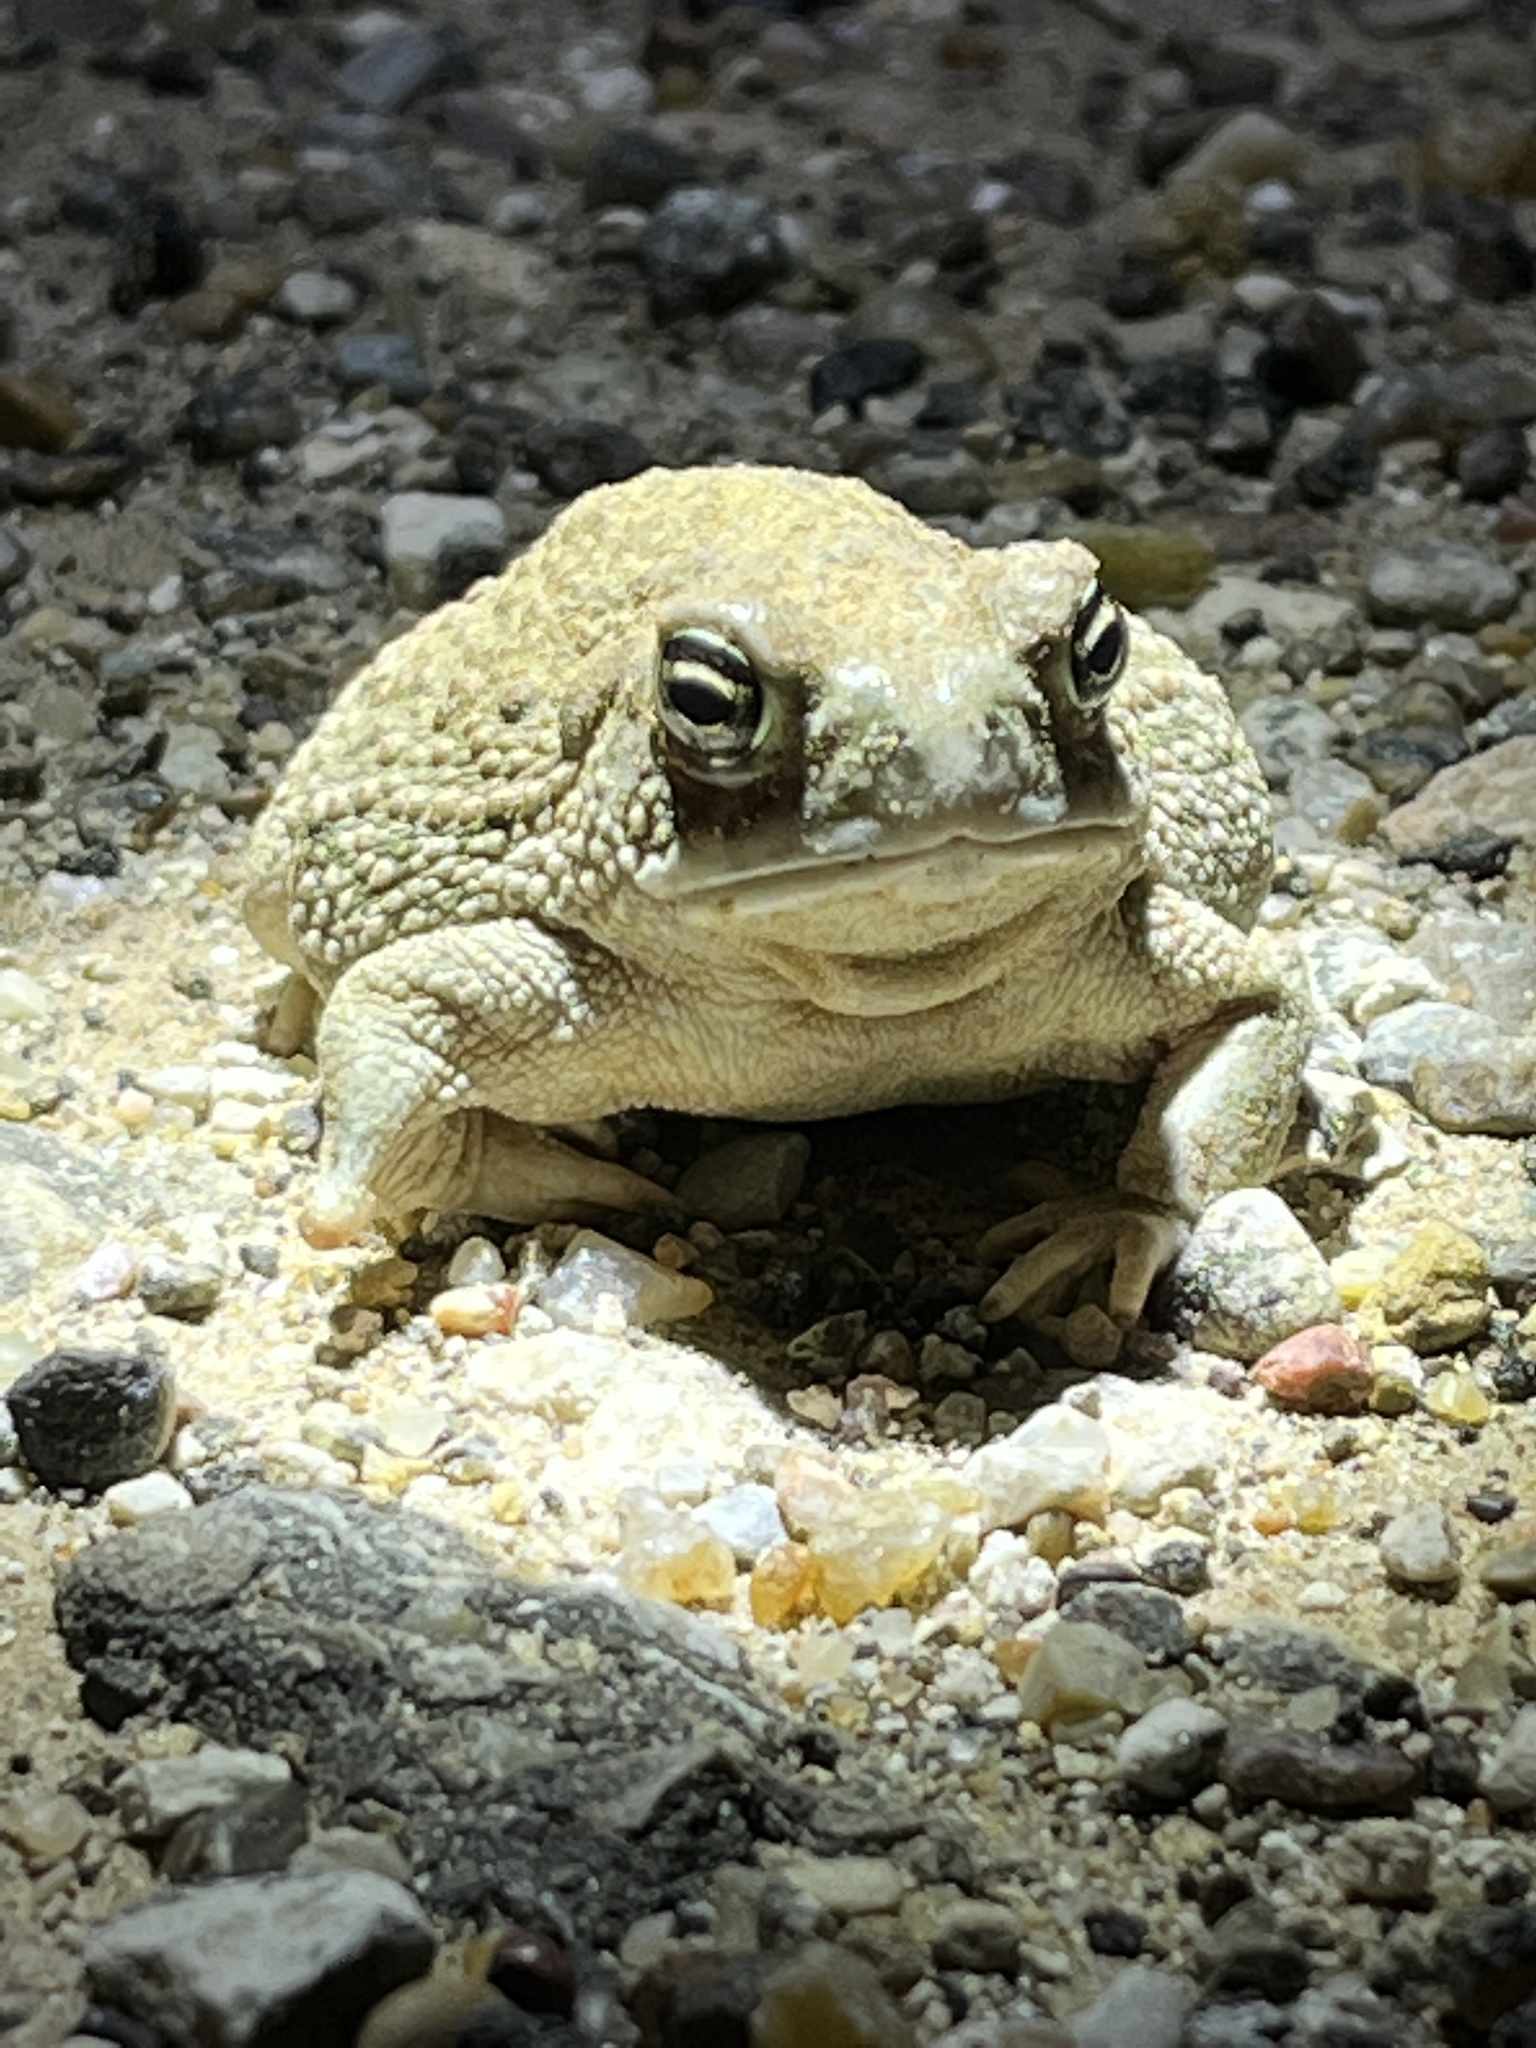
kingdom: Animalia
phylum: Chordata
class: Amphibia
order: Anura
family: Bufonidae
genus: Anaxyrus
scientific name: Anaxyrus speciosus
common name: Texas toad
